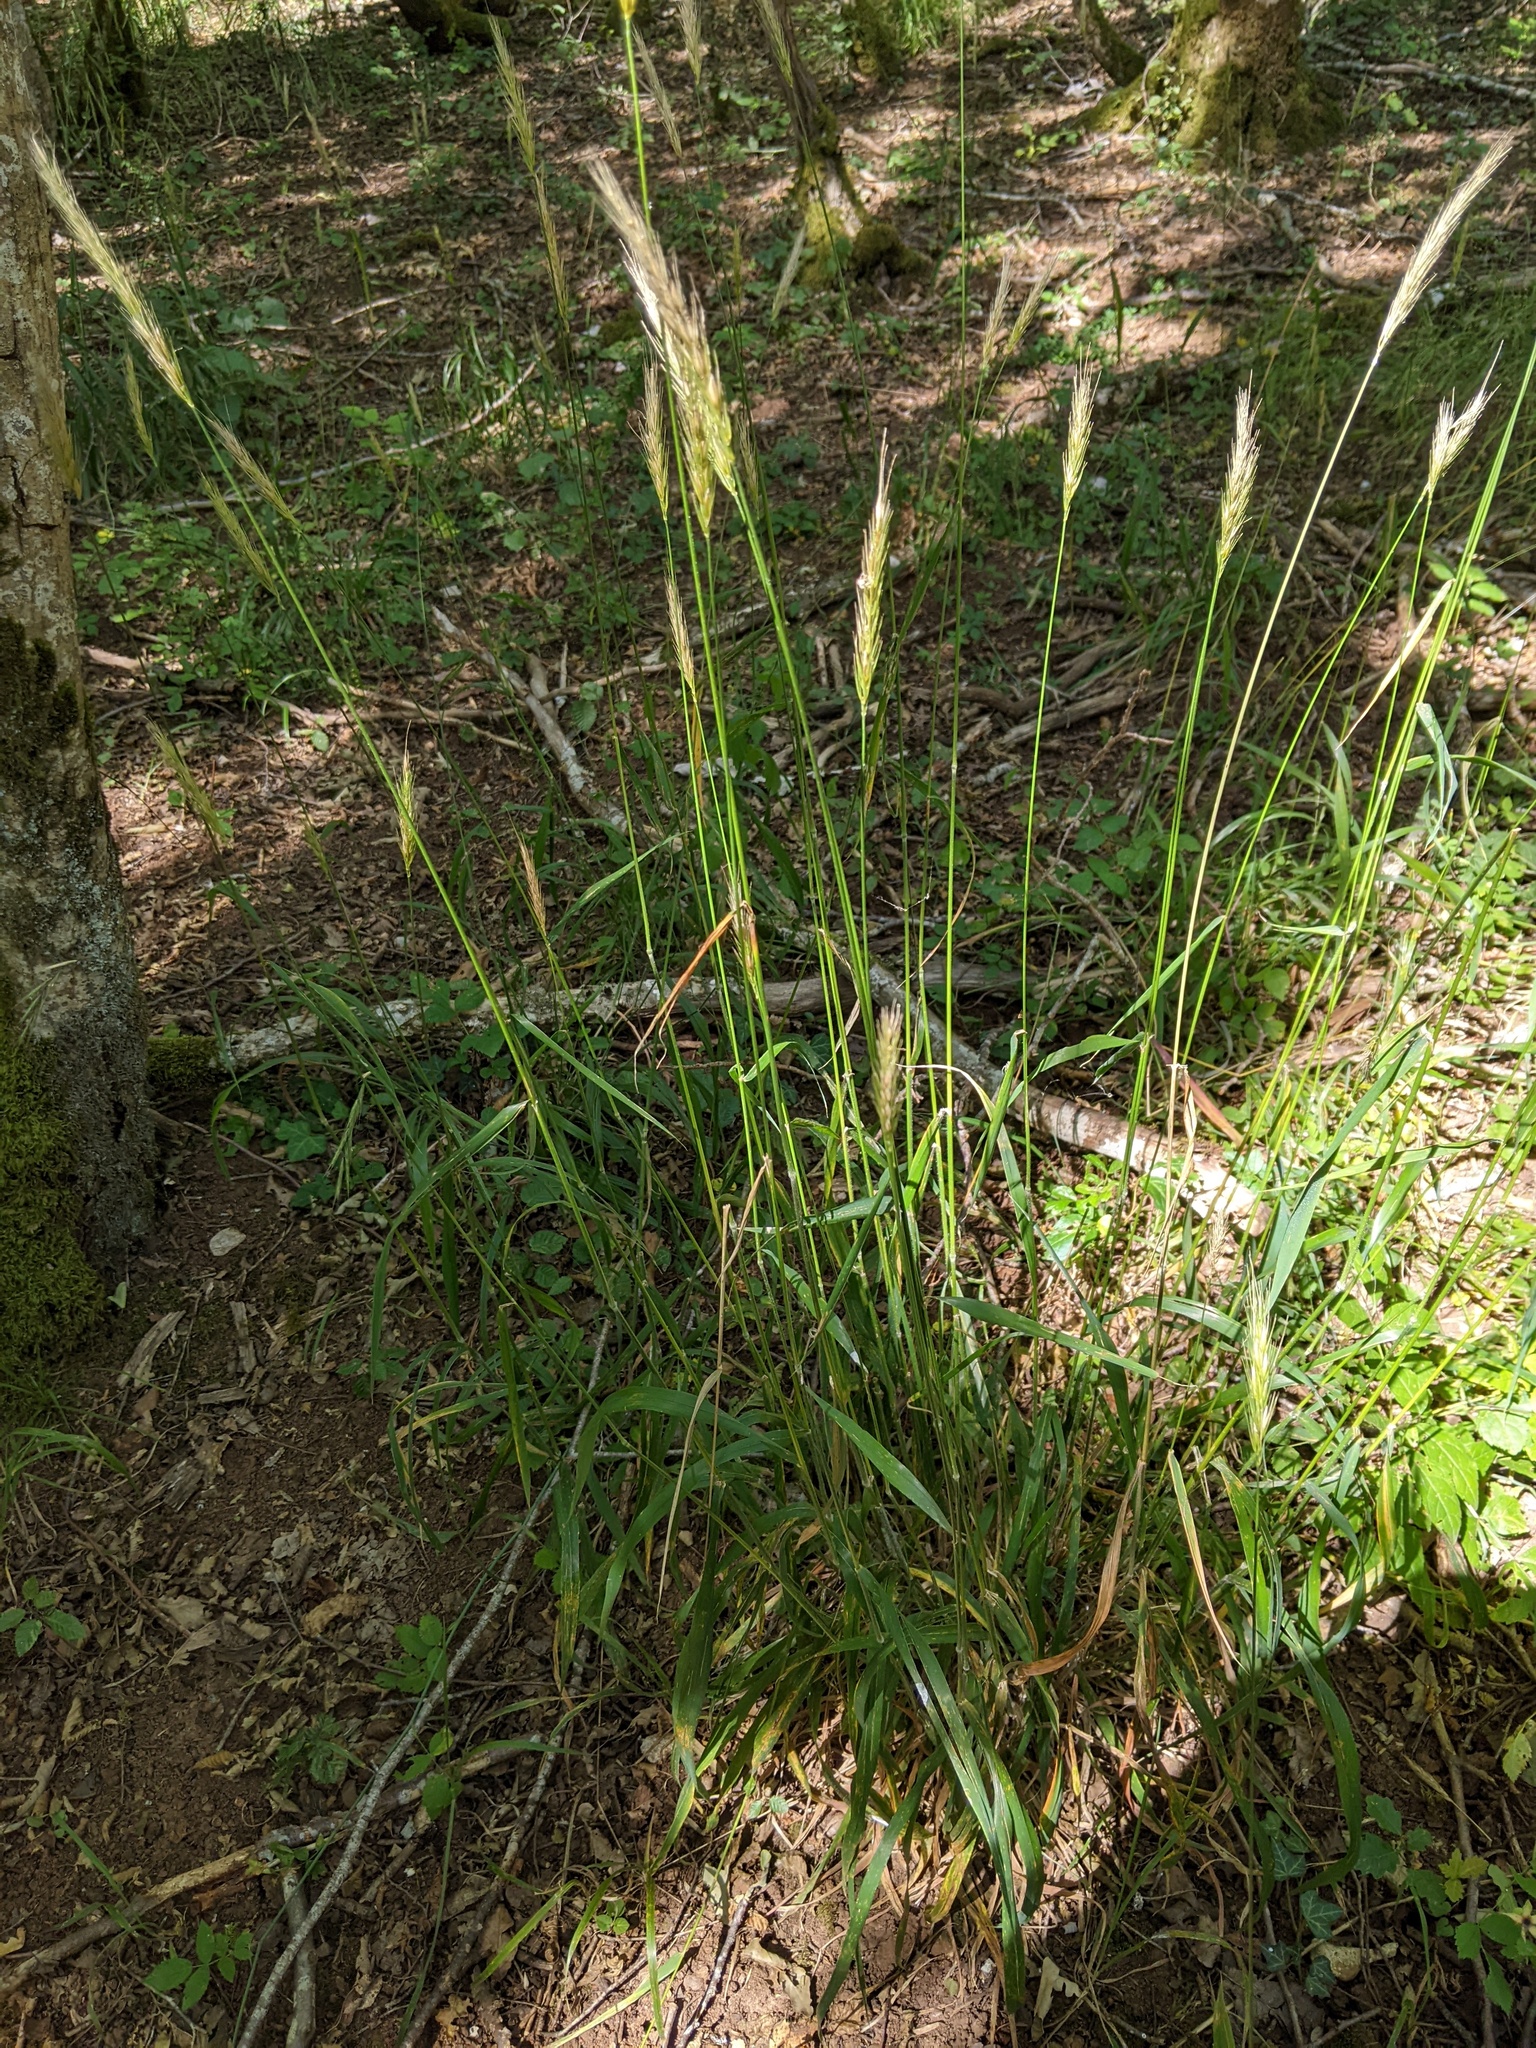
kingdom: Plantae
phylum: Tracheophyta
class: Liliopsida
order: Poales
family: Poaceae
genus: Hordelymus
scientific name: Hordelymus europaeus
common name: Wood-barley
